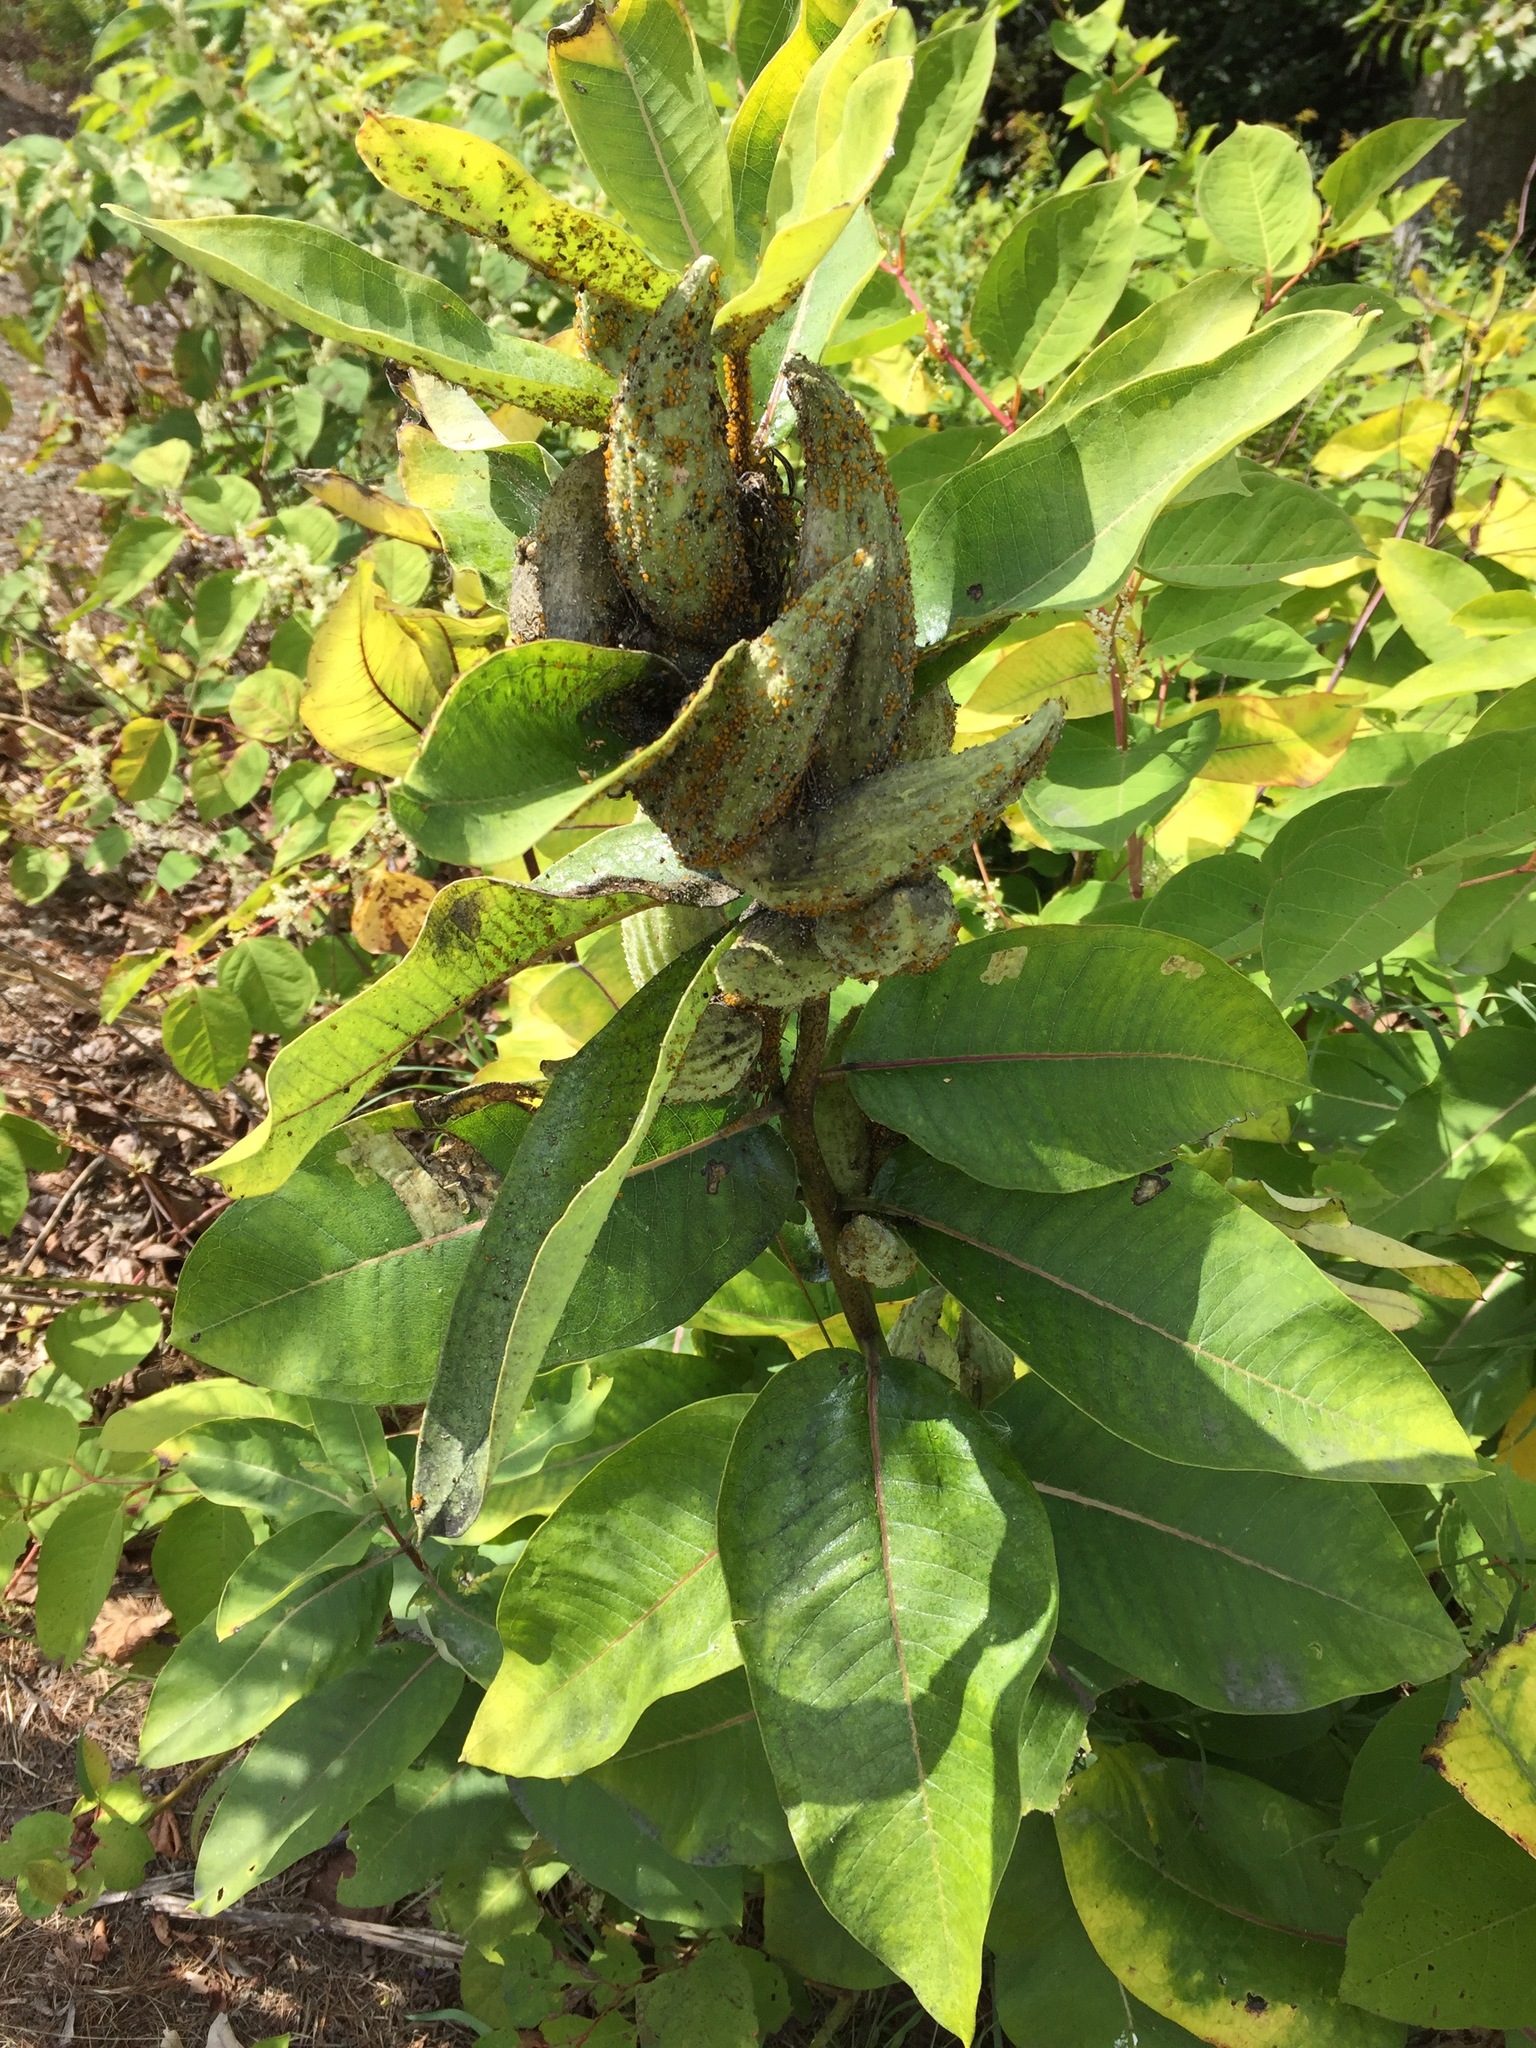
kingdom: Plantae
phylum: Tracheophyta
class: Magnoliopsida
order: Gentianales
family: Apocynaceae
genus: Asclepias
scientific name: Asclepias syriaca
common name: Common milkweed
